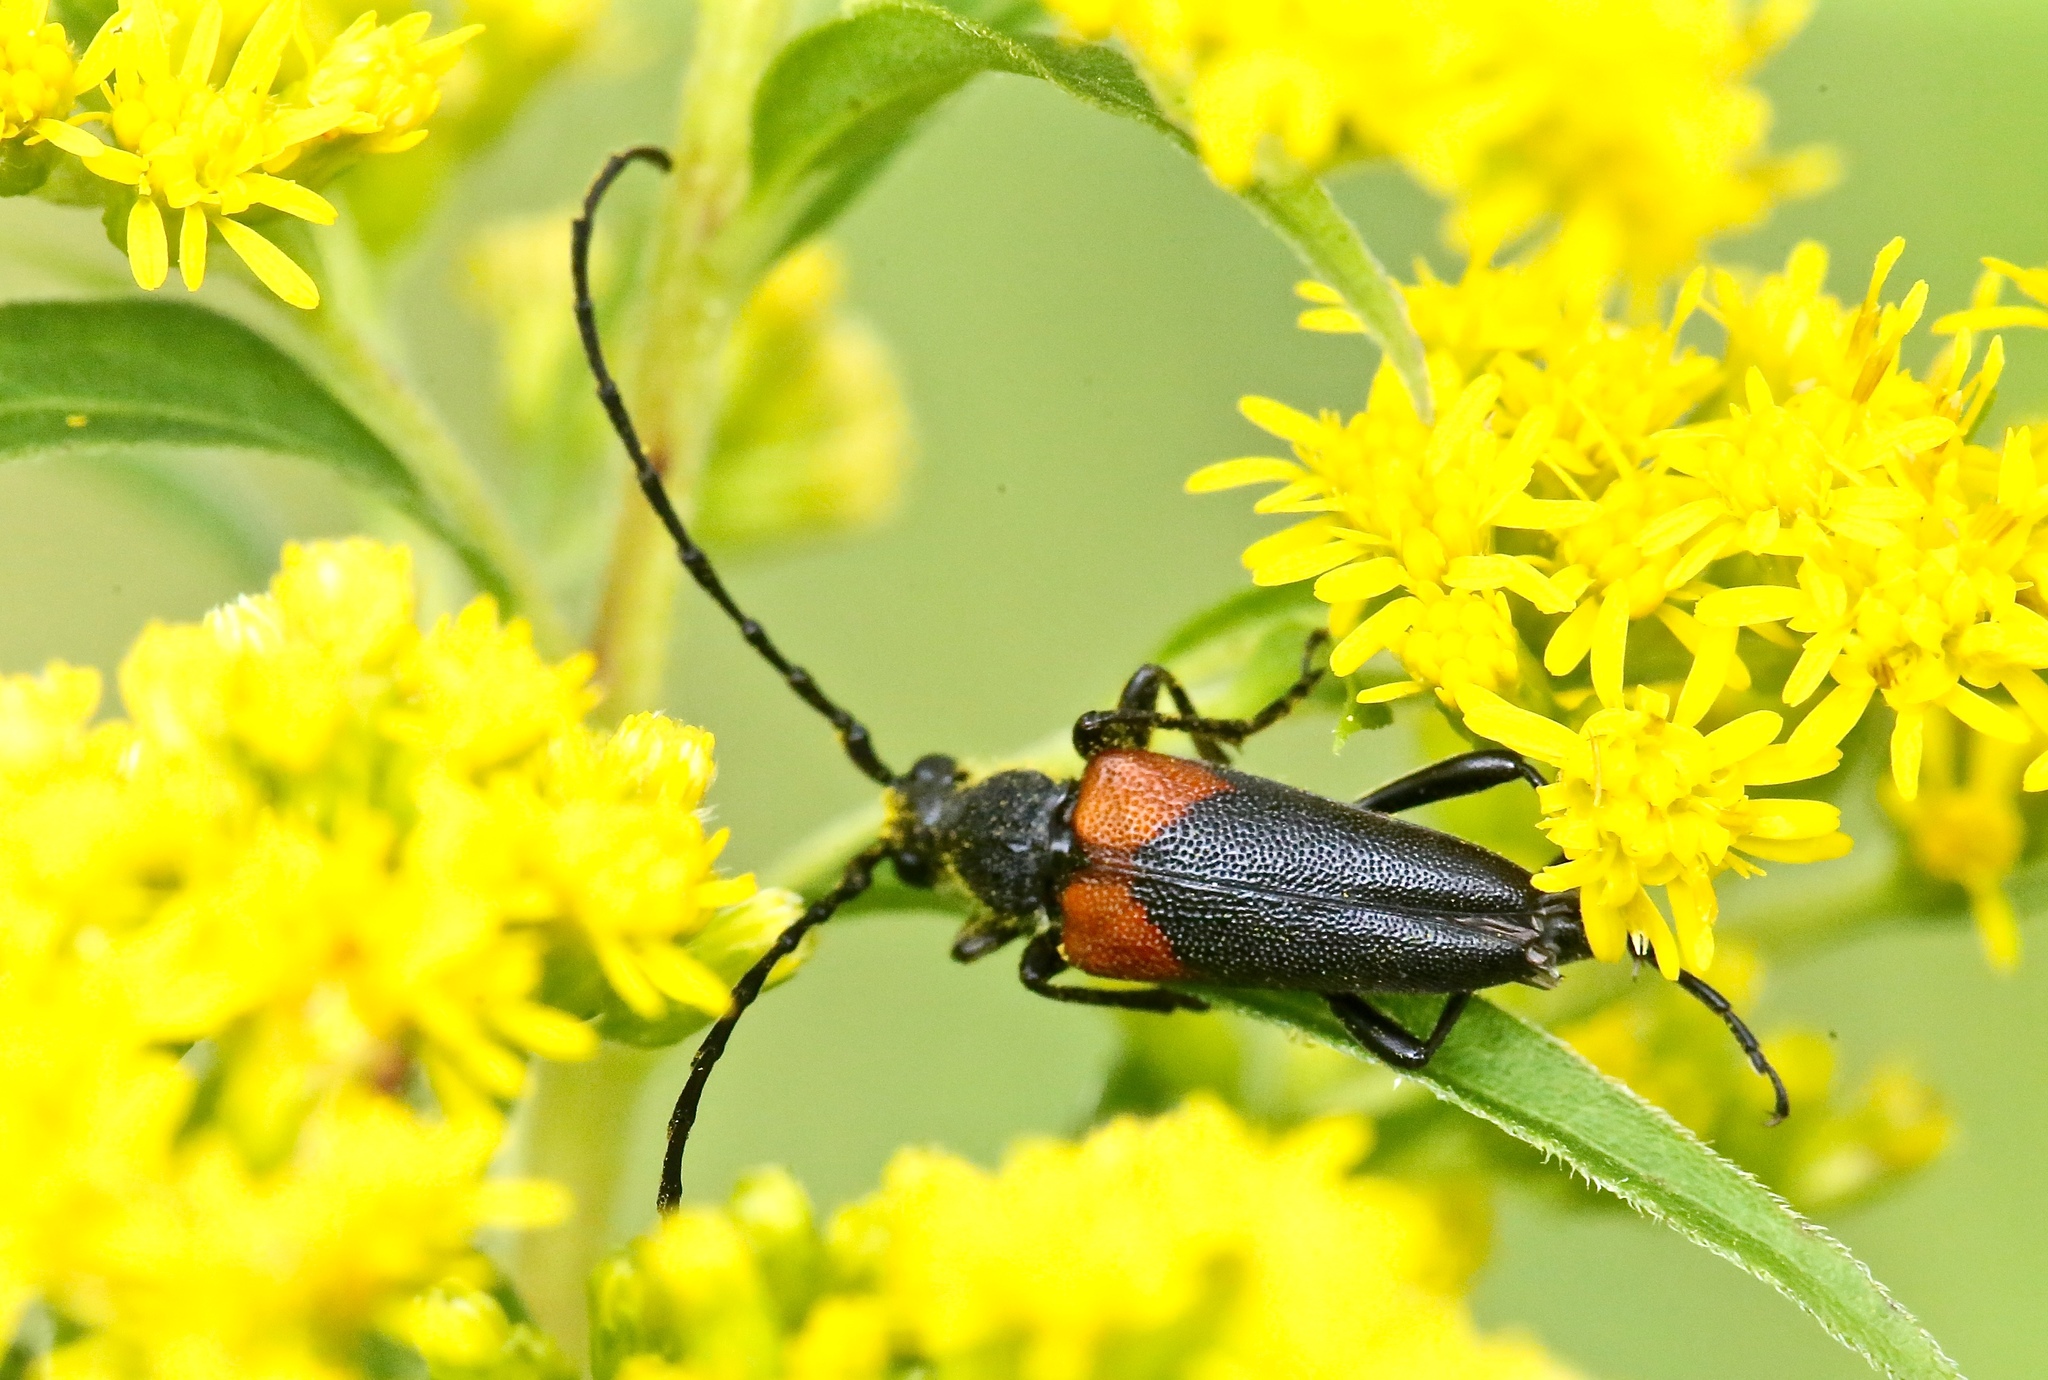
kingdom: Animalia
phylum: Arthropoda
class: Insecta
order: Coleoptera
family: Cerambycidae
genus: Stictoleptura
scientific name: Stictoleptura canadensis
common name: Red-shouldered pine borer
